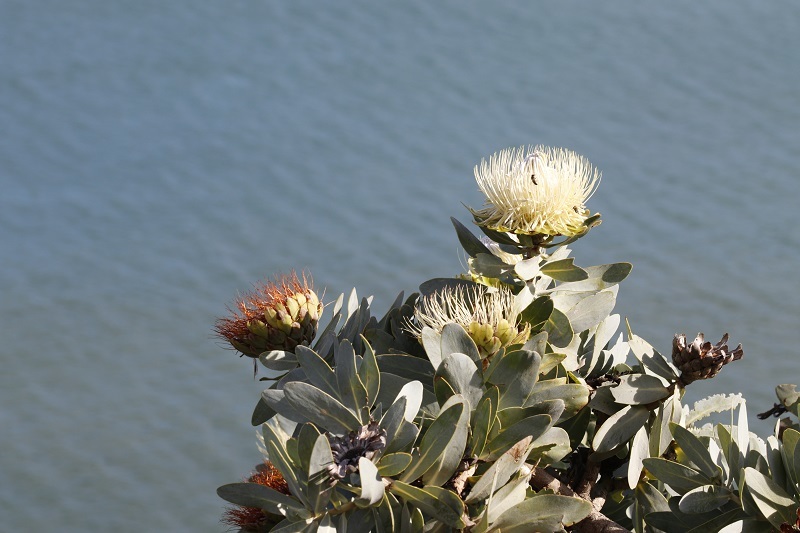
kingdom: Plantae
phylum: Tracheophyta
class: Magnoliopsida
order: Proteales
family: Proteaceae
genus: Protea
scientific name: Protea nitida
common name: Tree protea
